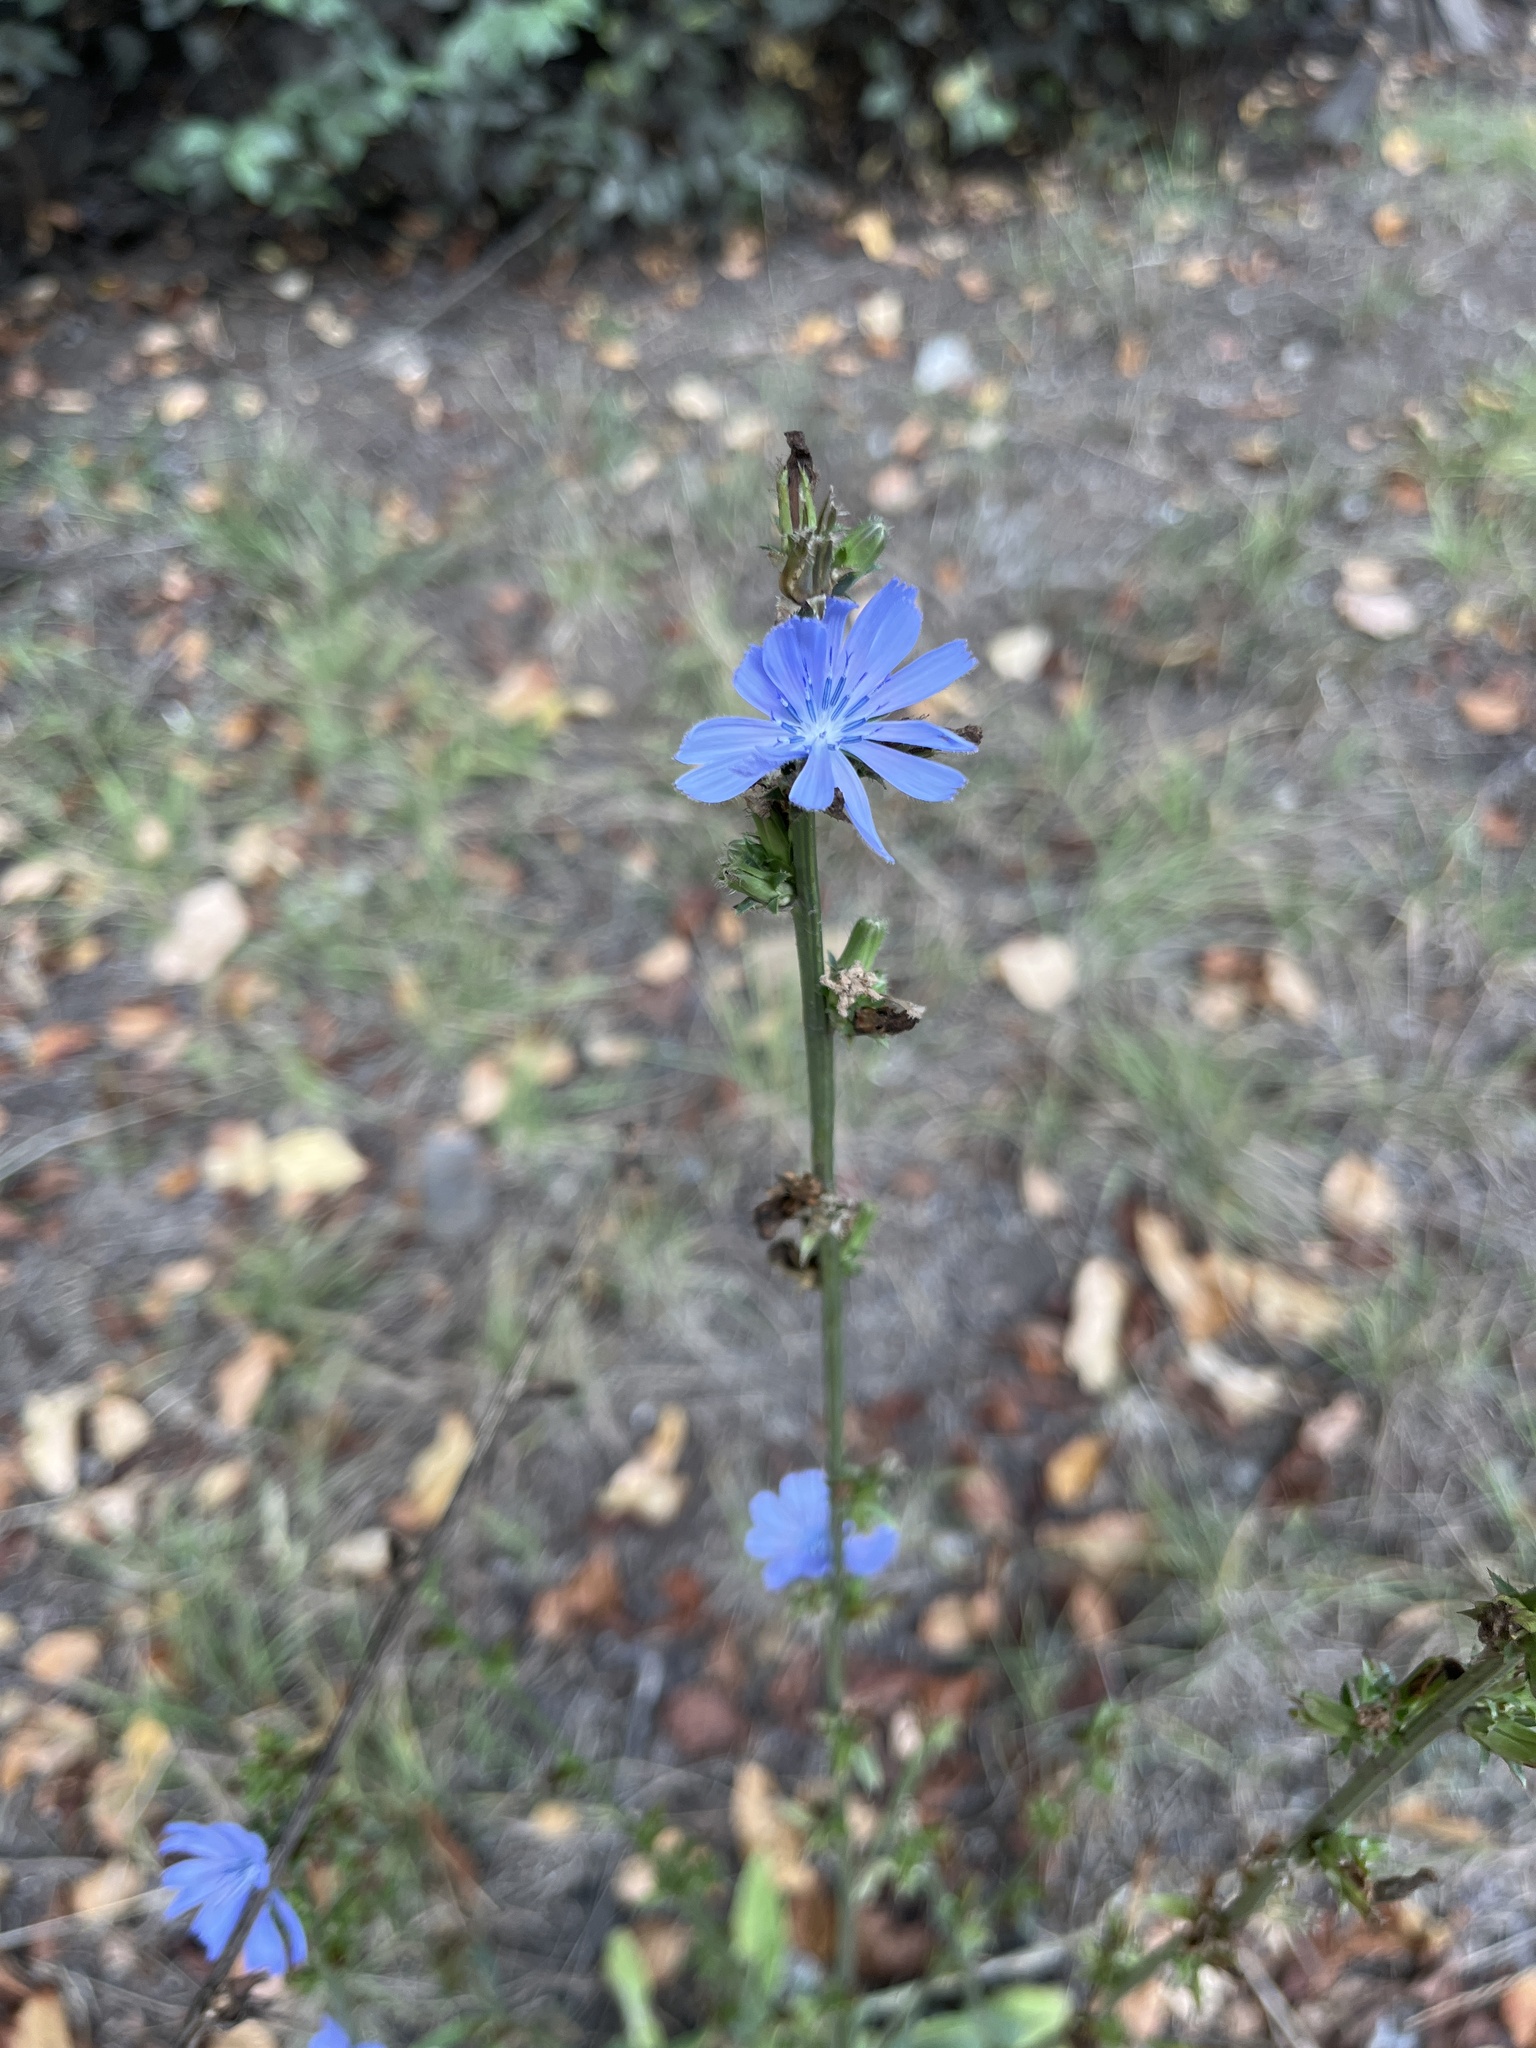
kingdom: Plantae
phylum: Tracheophyta
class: Magnoliopsida
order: Asterales
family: Asteraceae
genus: Cichorium
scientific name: Cichorium intybus
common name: Chicory
